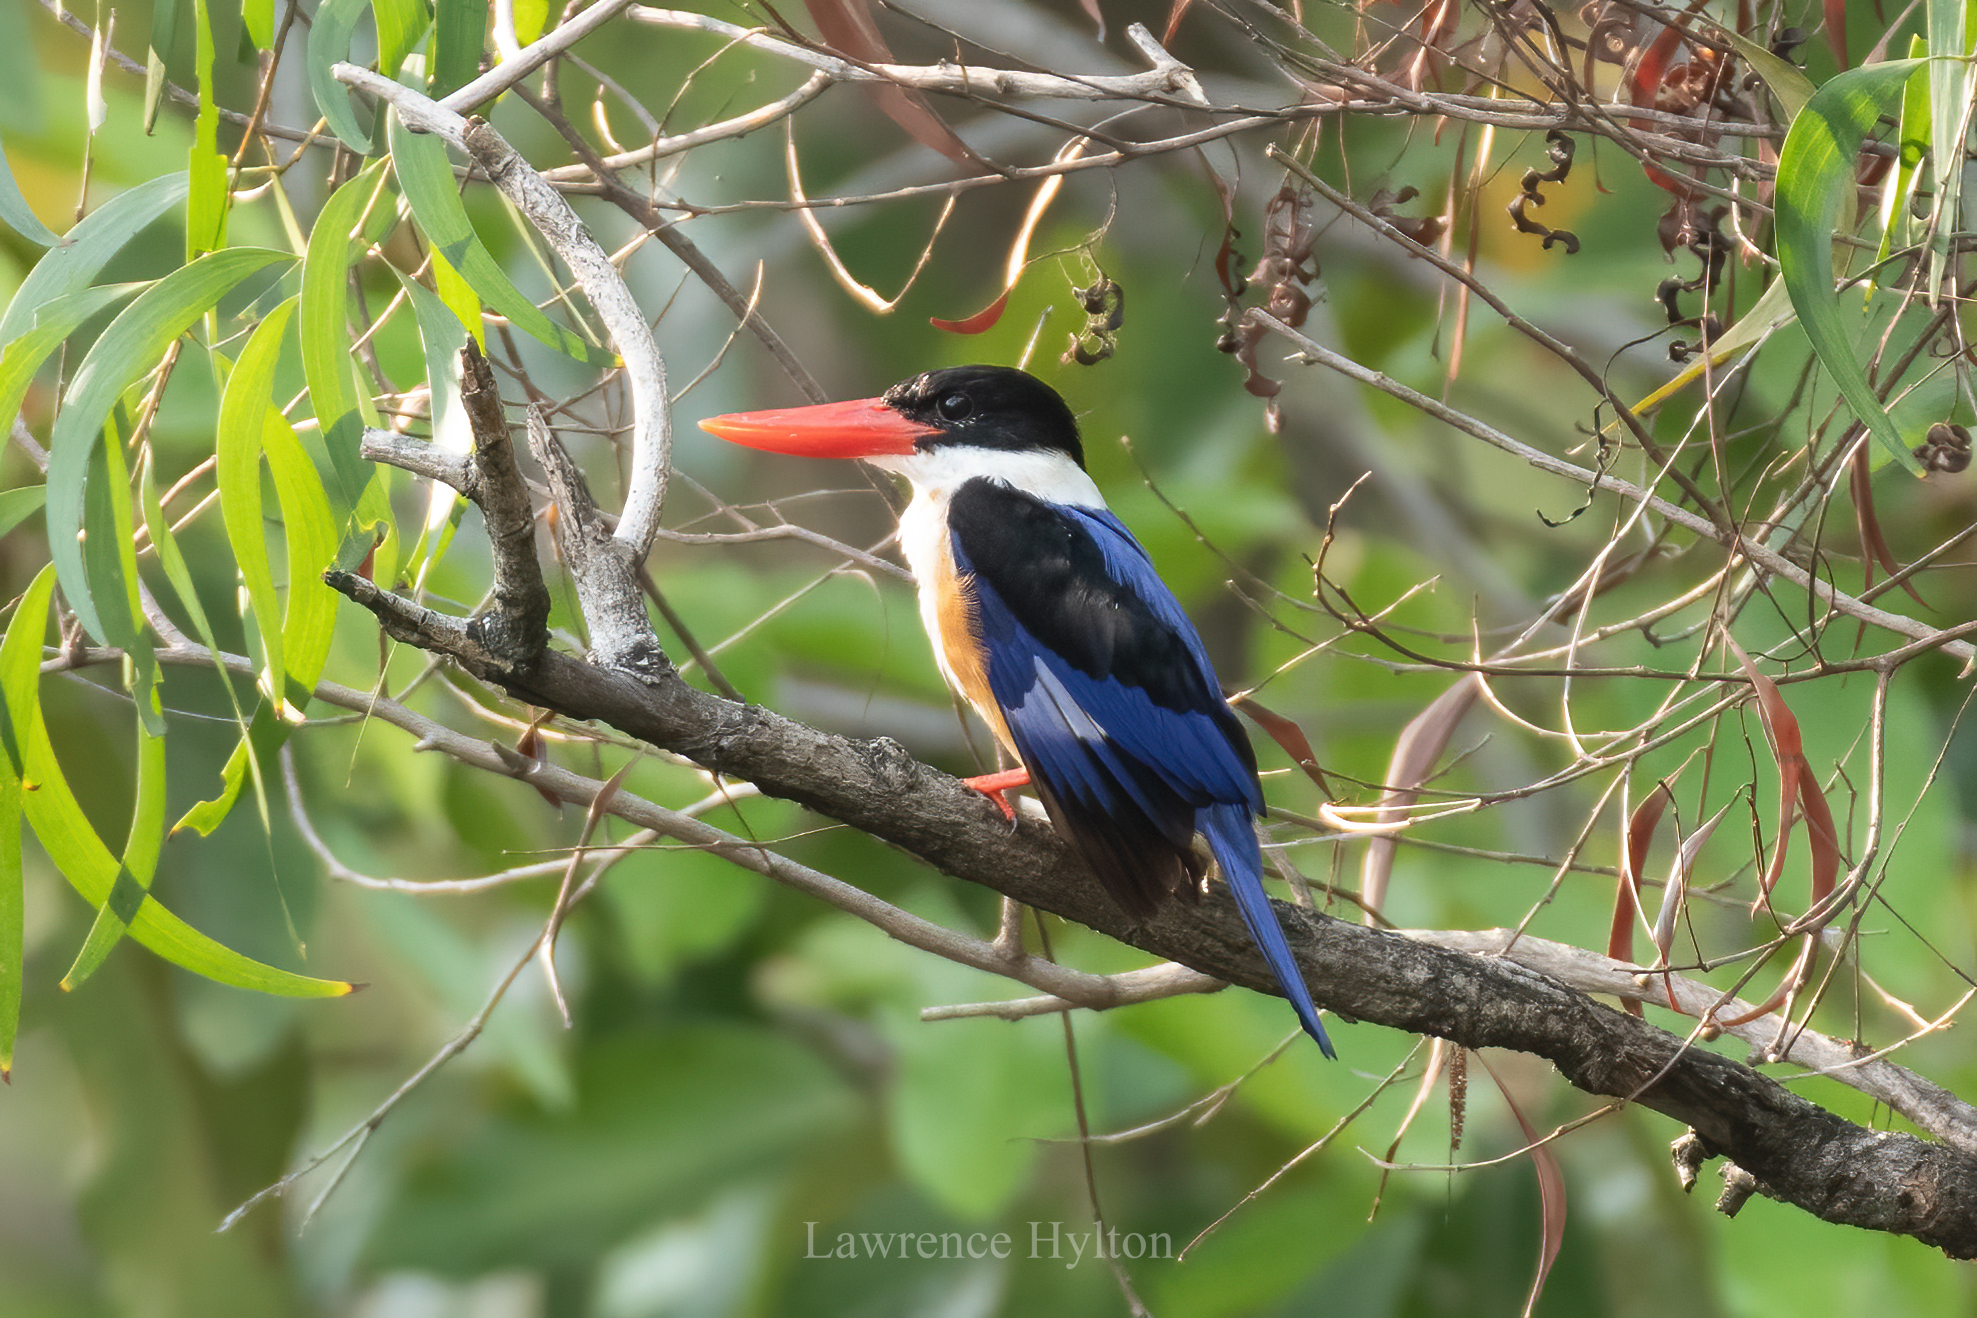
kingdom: Animalia
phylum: Chordata
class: Aves
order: Coraciiformes
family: Alcedinidae
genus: Halcyon
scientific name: Halcyon pileata
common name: Black-capped kingfisher
